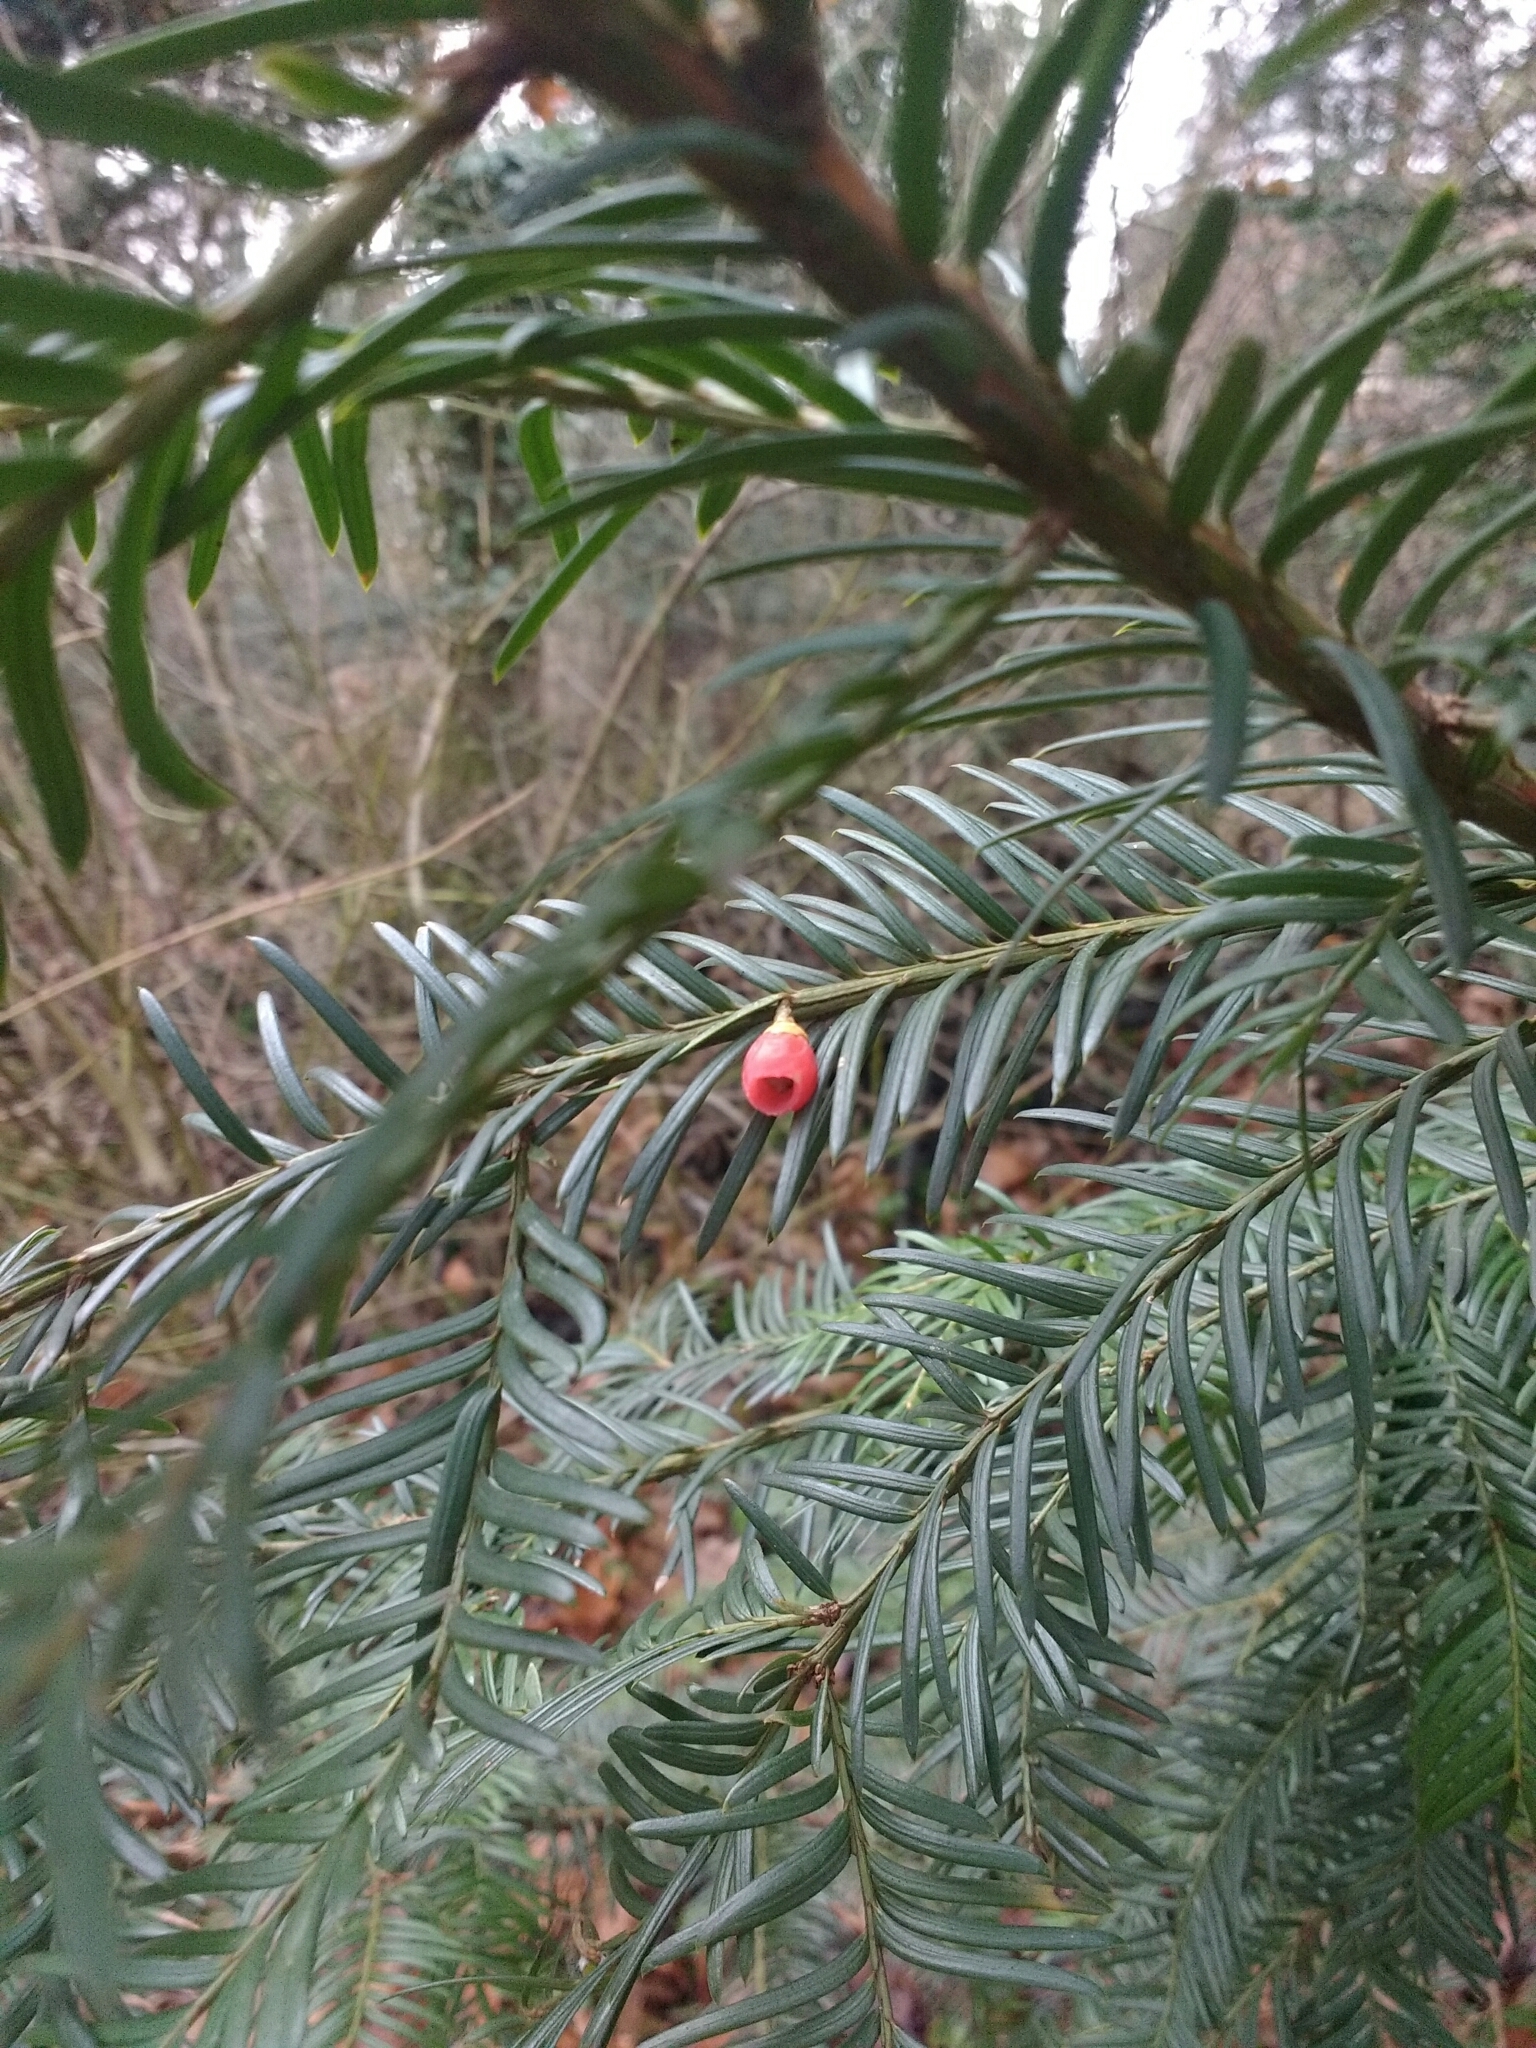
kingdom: Plantae
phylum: Tracheophyta
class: Pinopsida
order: Pinales
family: Taxaceae
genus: Taxus
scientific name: Taxus baccata
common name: Yew
